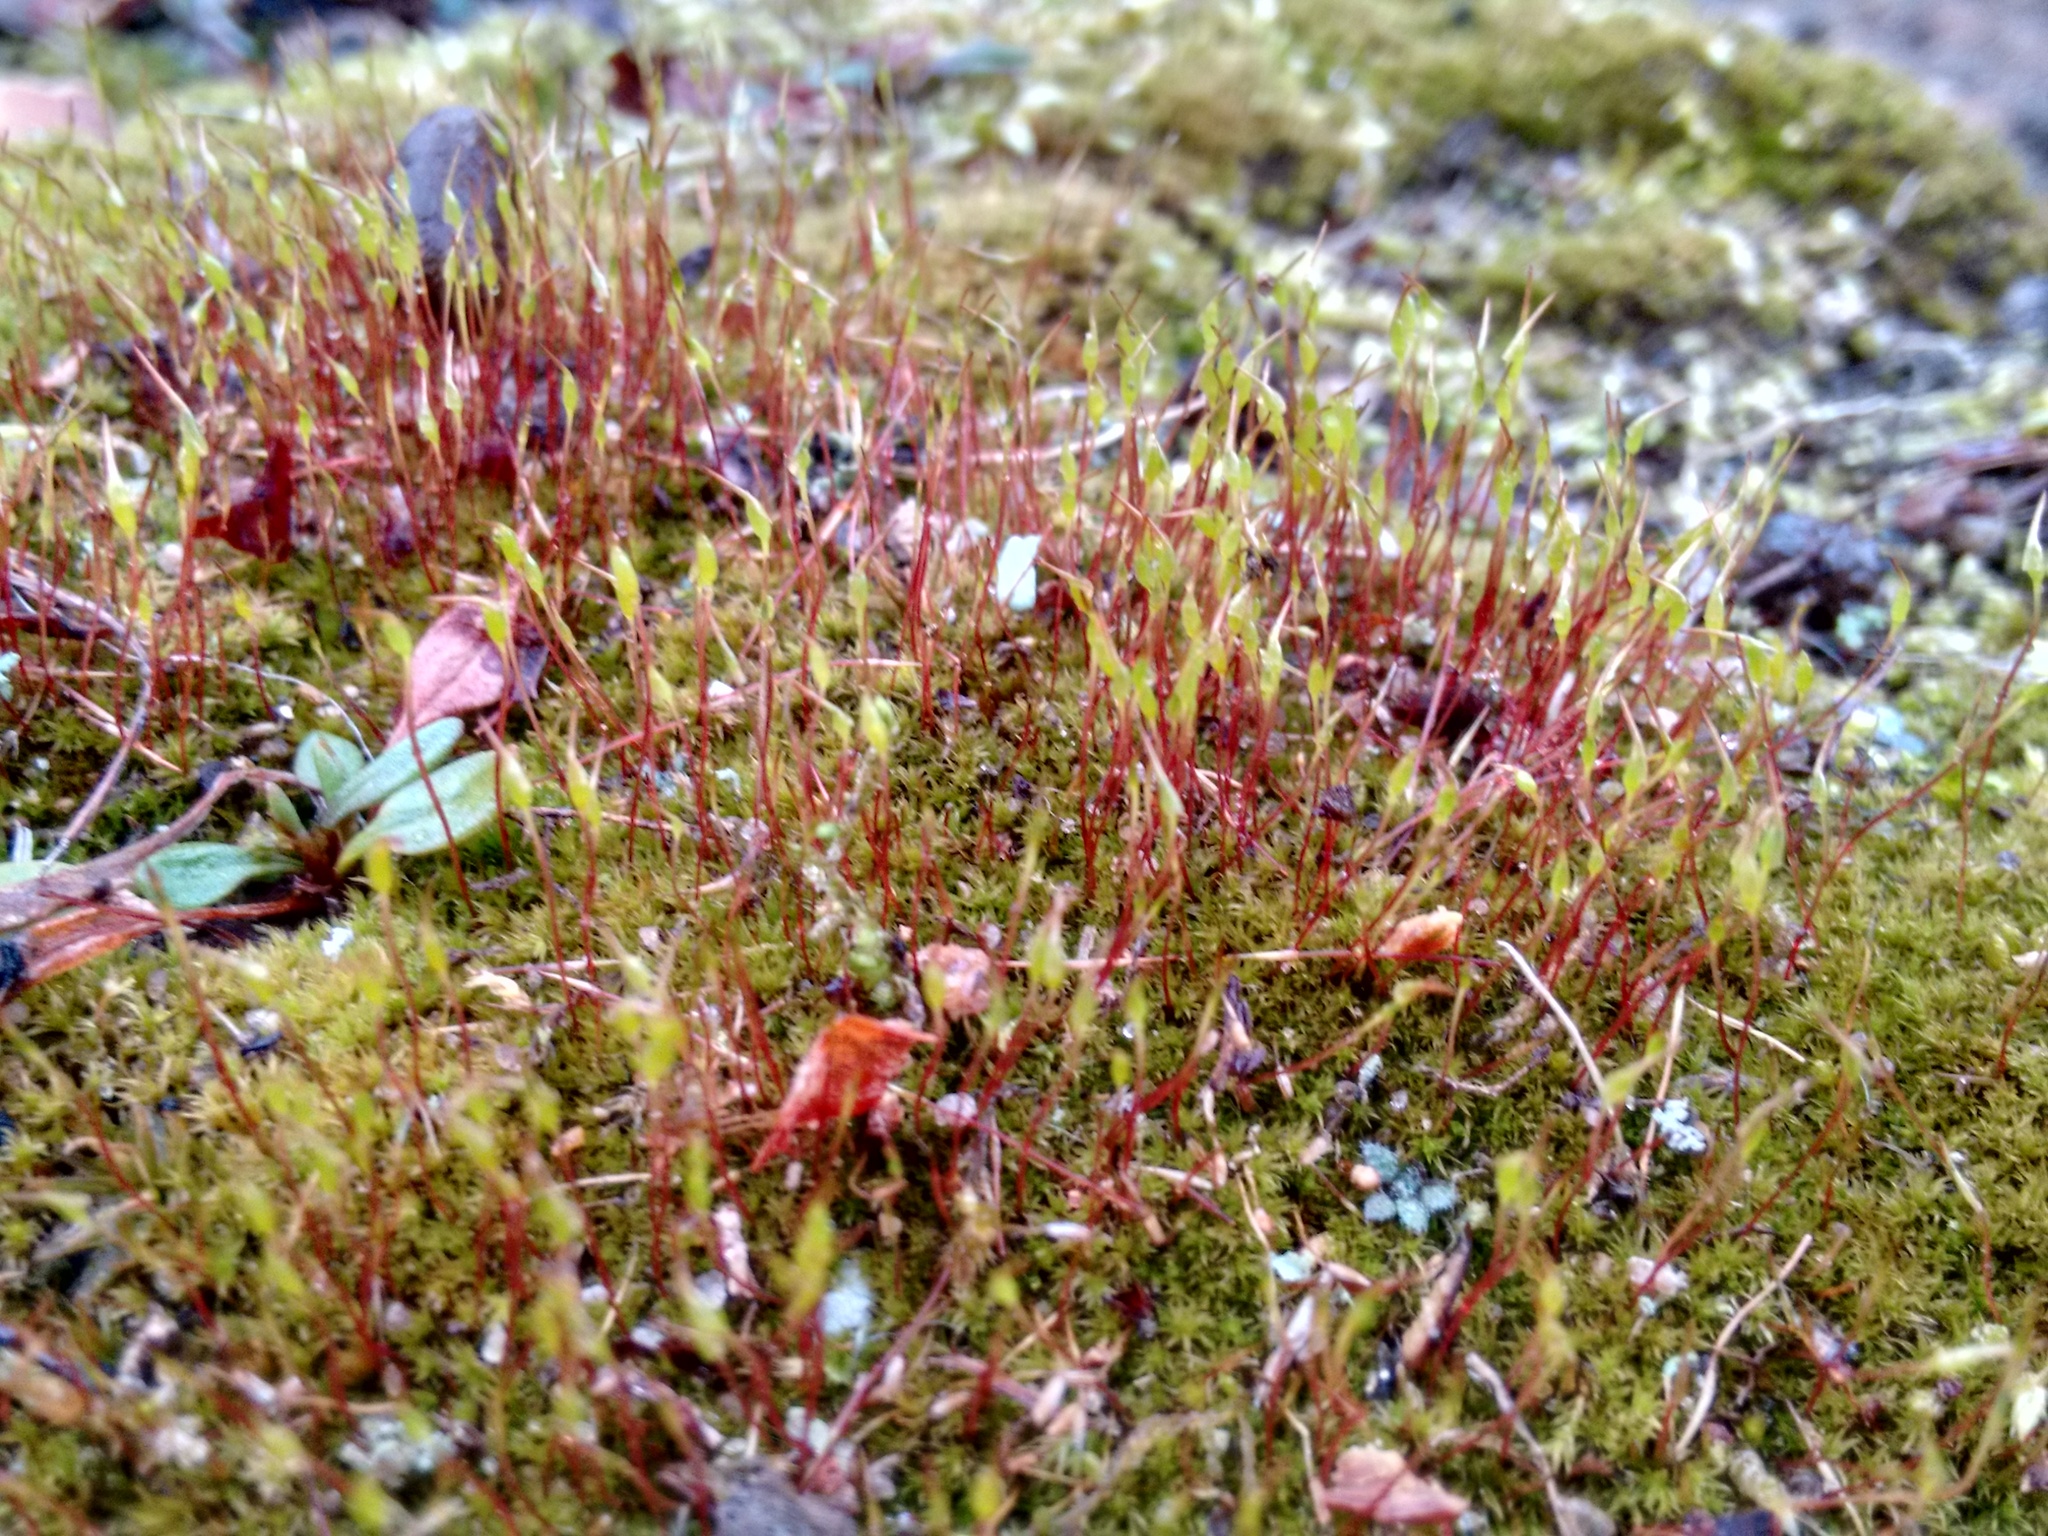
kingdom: Plantae
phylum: Bryophyta
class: Bryopsida
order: Dicranales
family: Ditrichaceae
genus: Ceratodon
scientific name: Ceratodon purpureus
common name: Redshank
